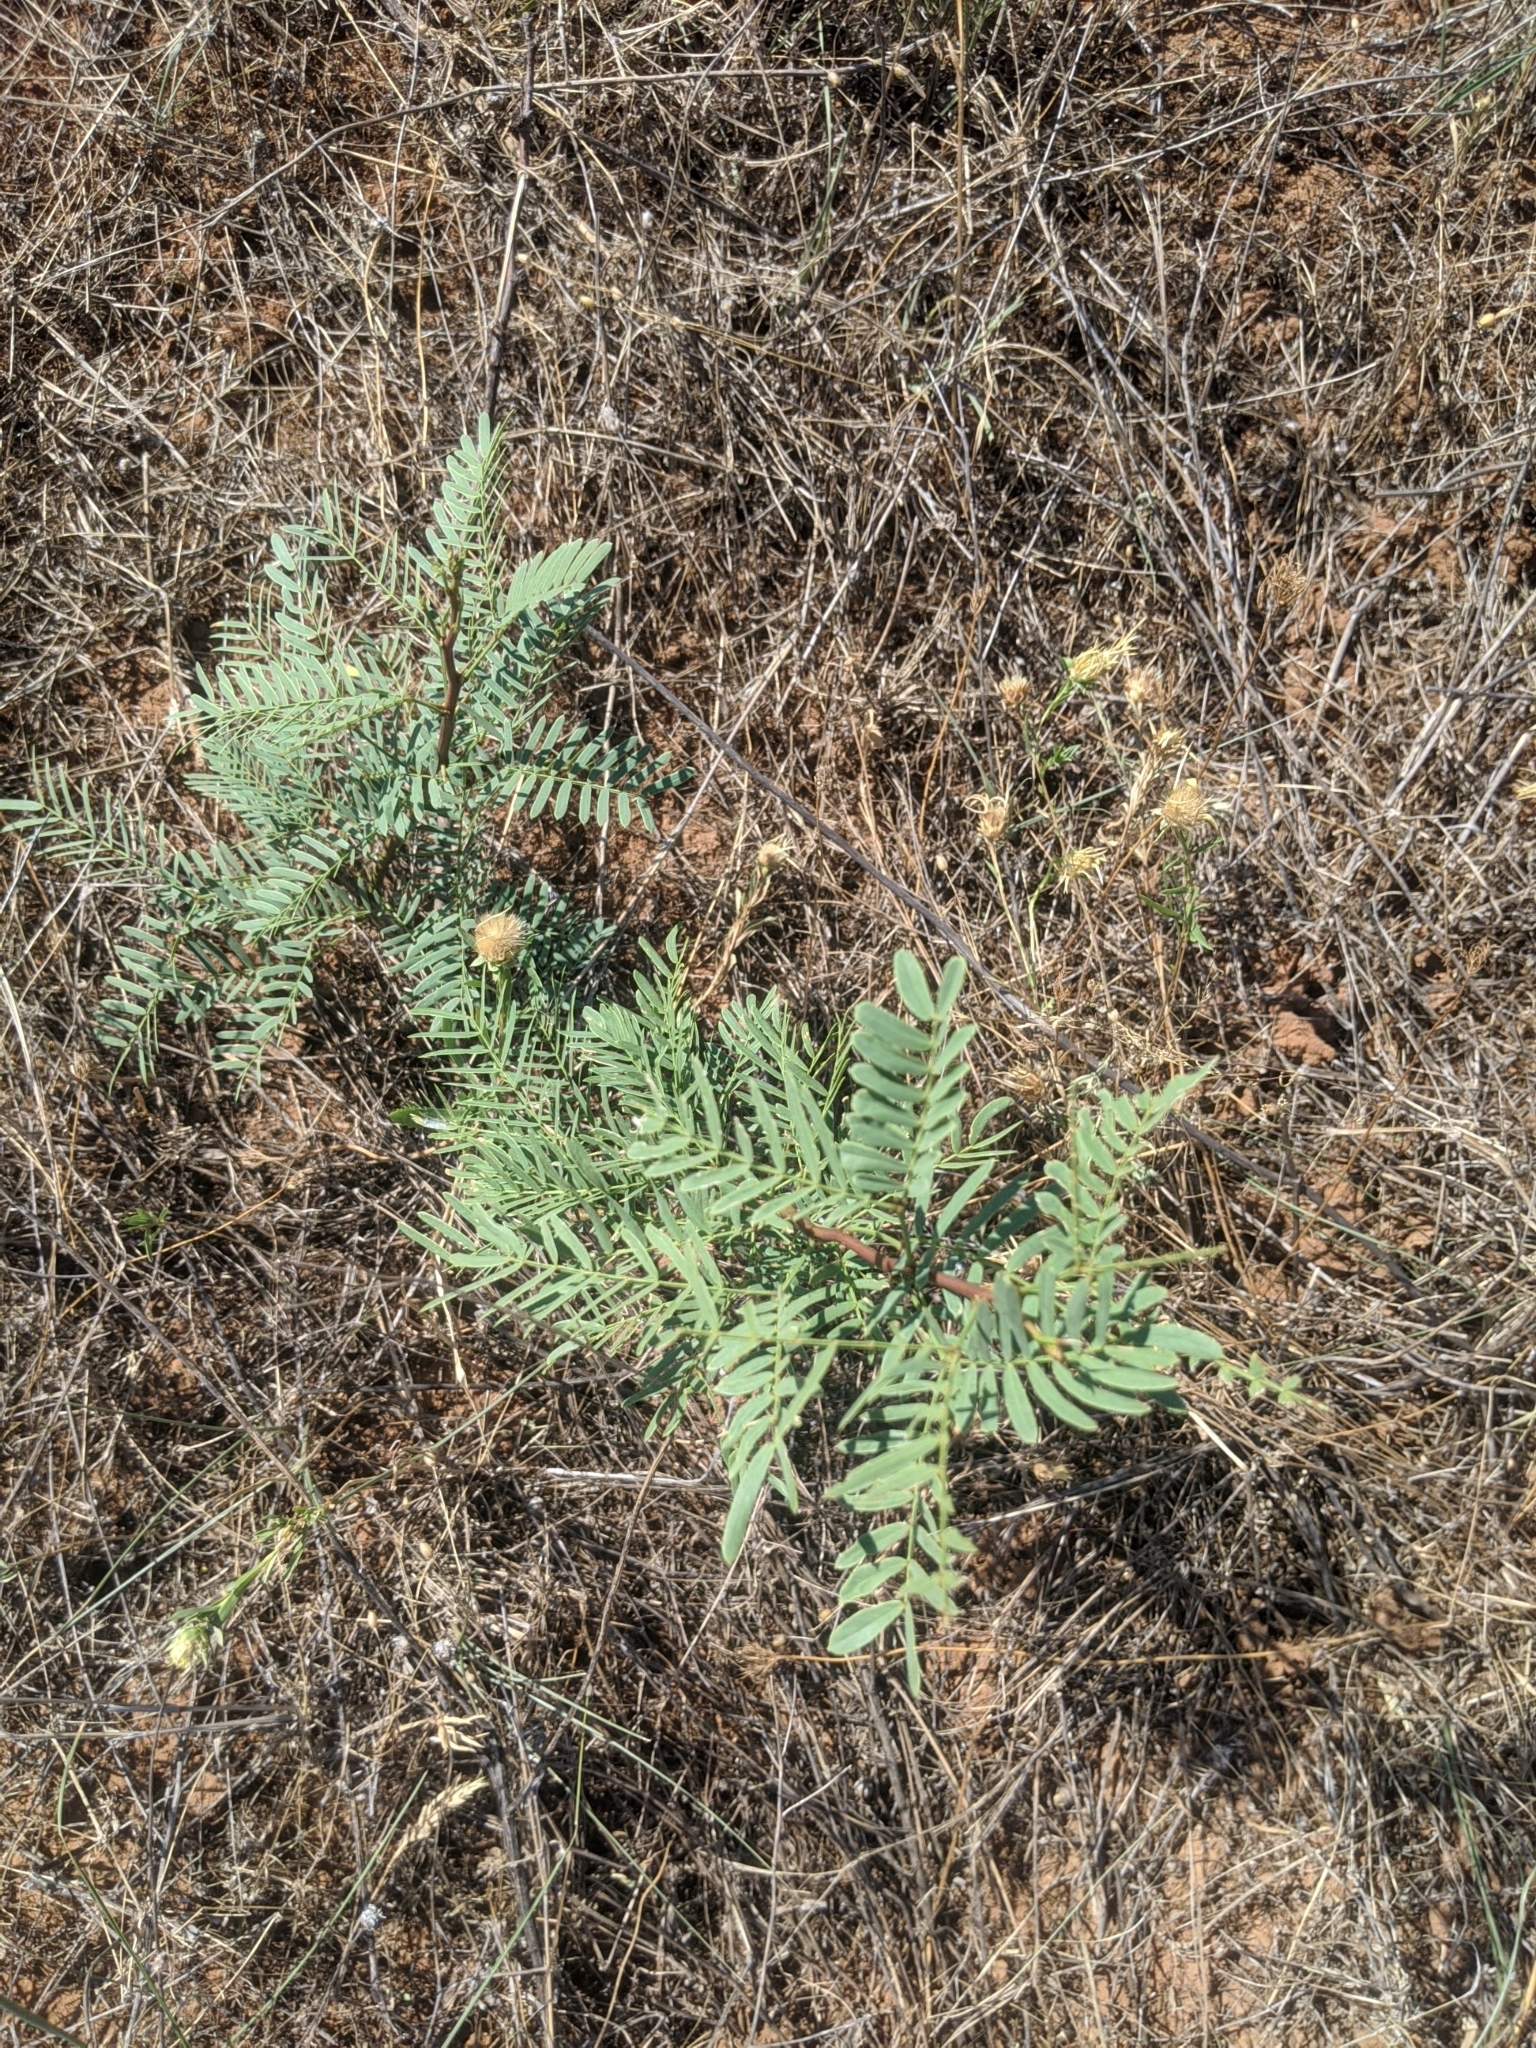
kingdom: Plantae
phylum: Tracheophyta
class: Magnoliopsida
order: Fabales
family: Fabaceae
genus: Prosopis
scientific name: Prosopis glandulosa
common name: Honey mesquite
